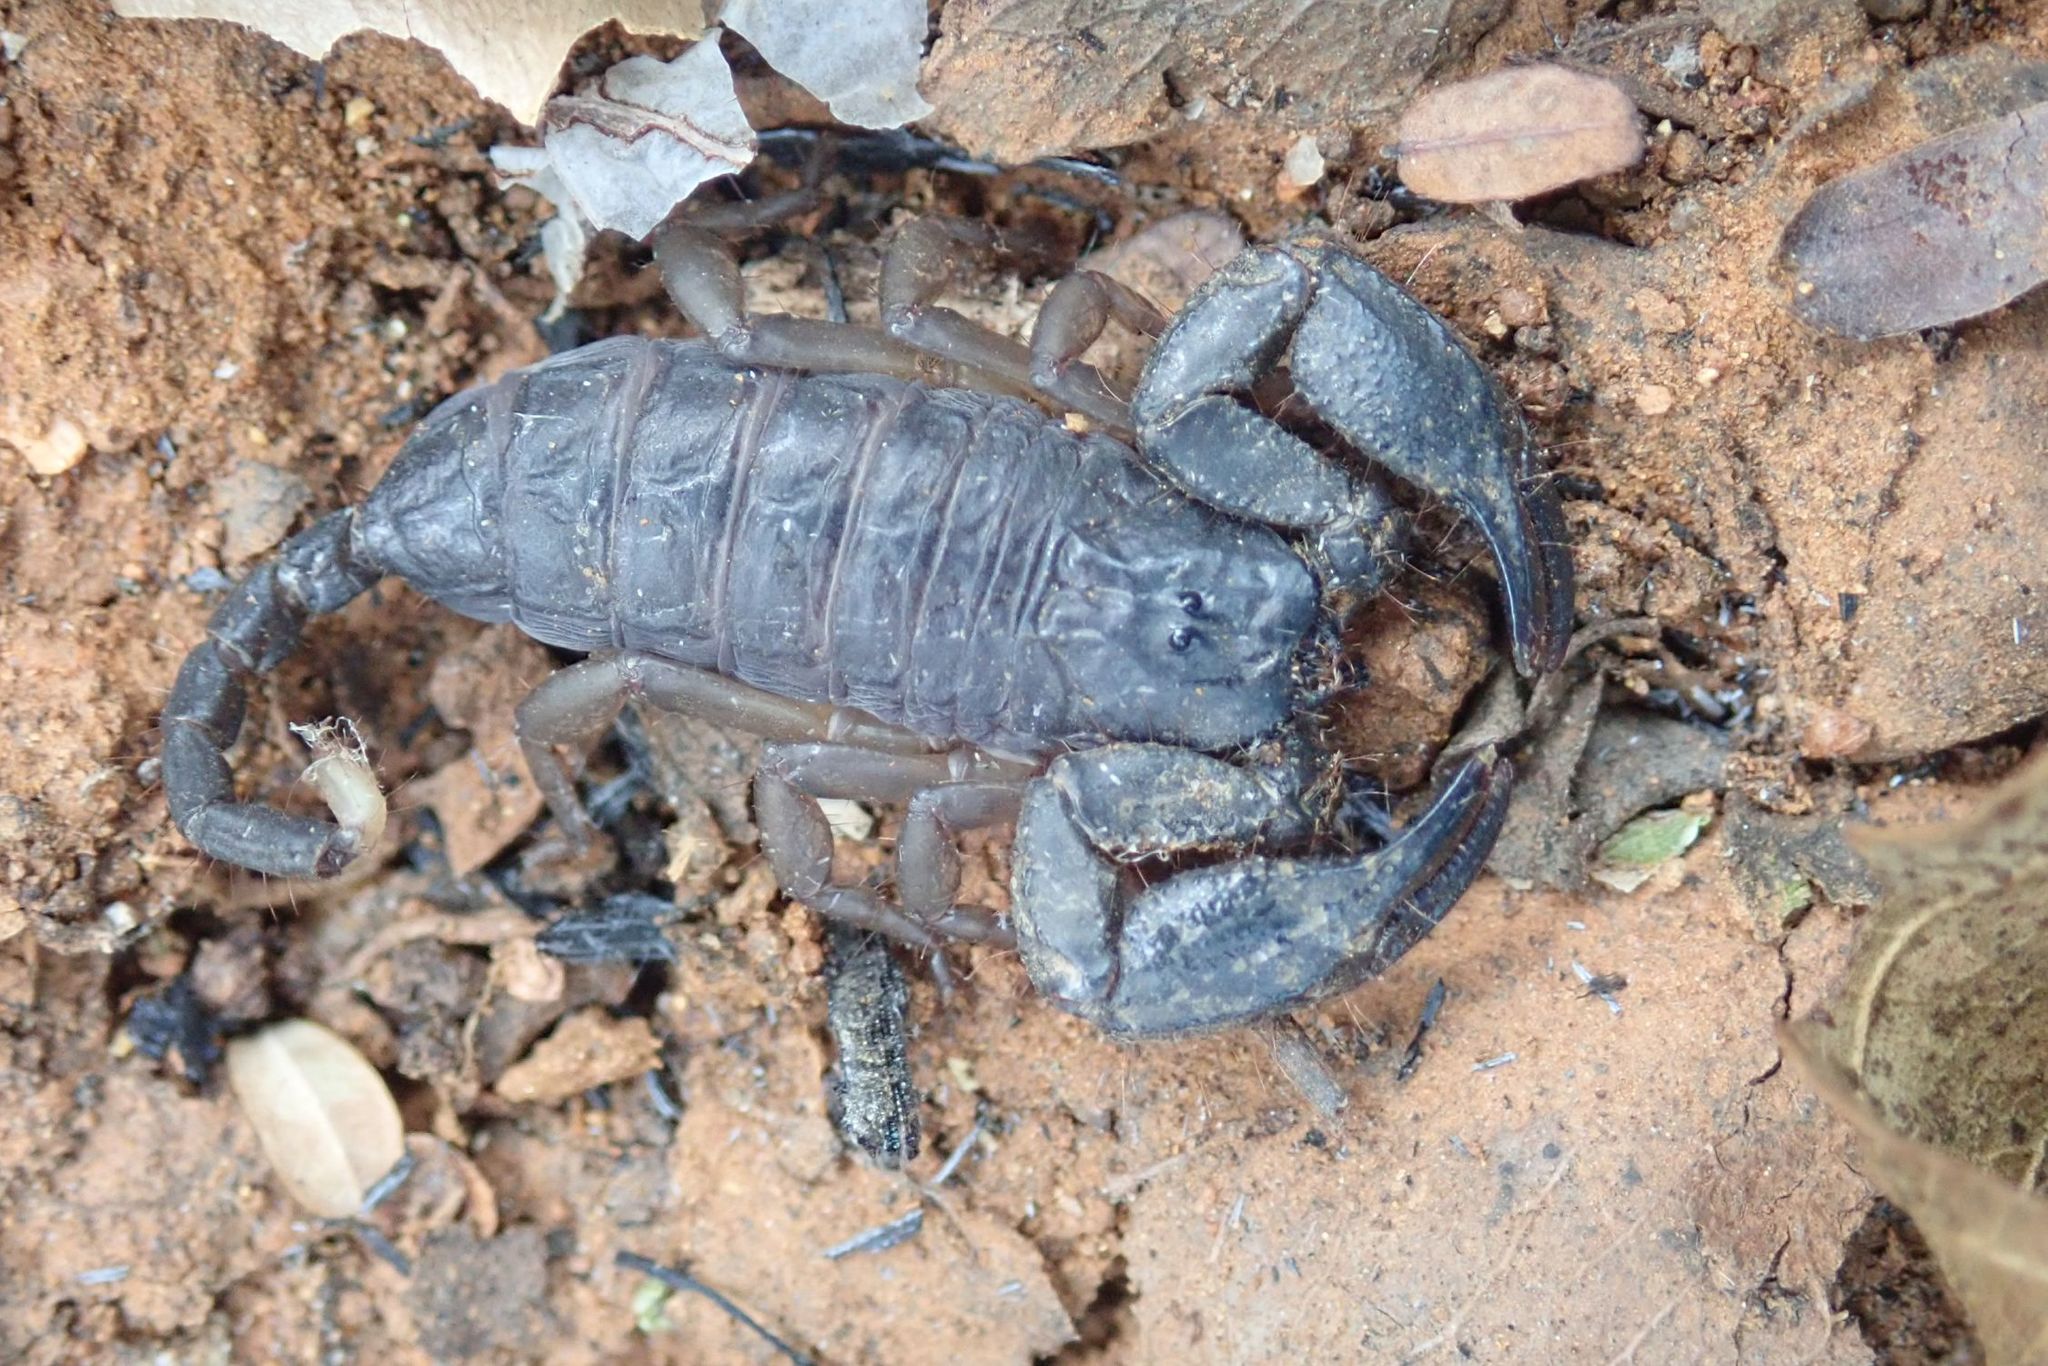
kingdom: Animalia
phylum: Arthropoda
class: Arachnida
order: Scorpiones
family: Hormuridae
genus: Opisthacanthus
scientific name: Opisthacanthus laevipes
